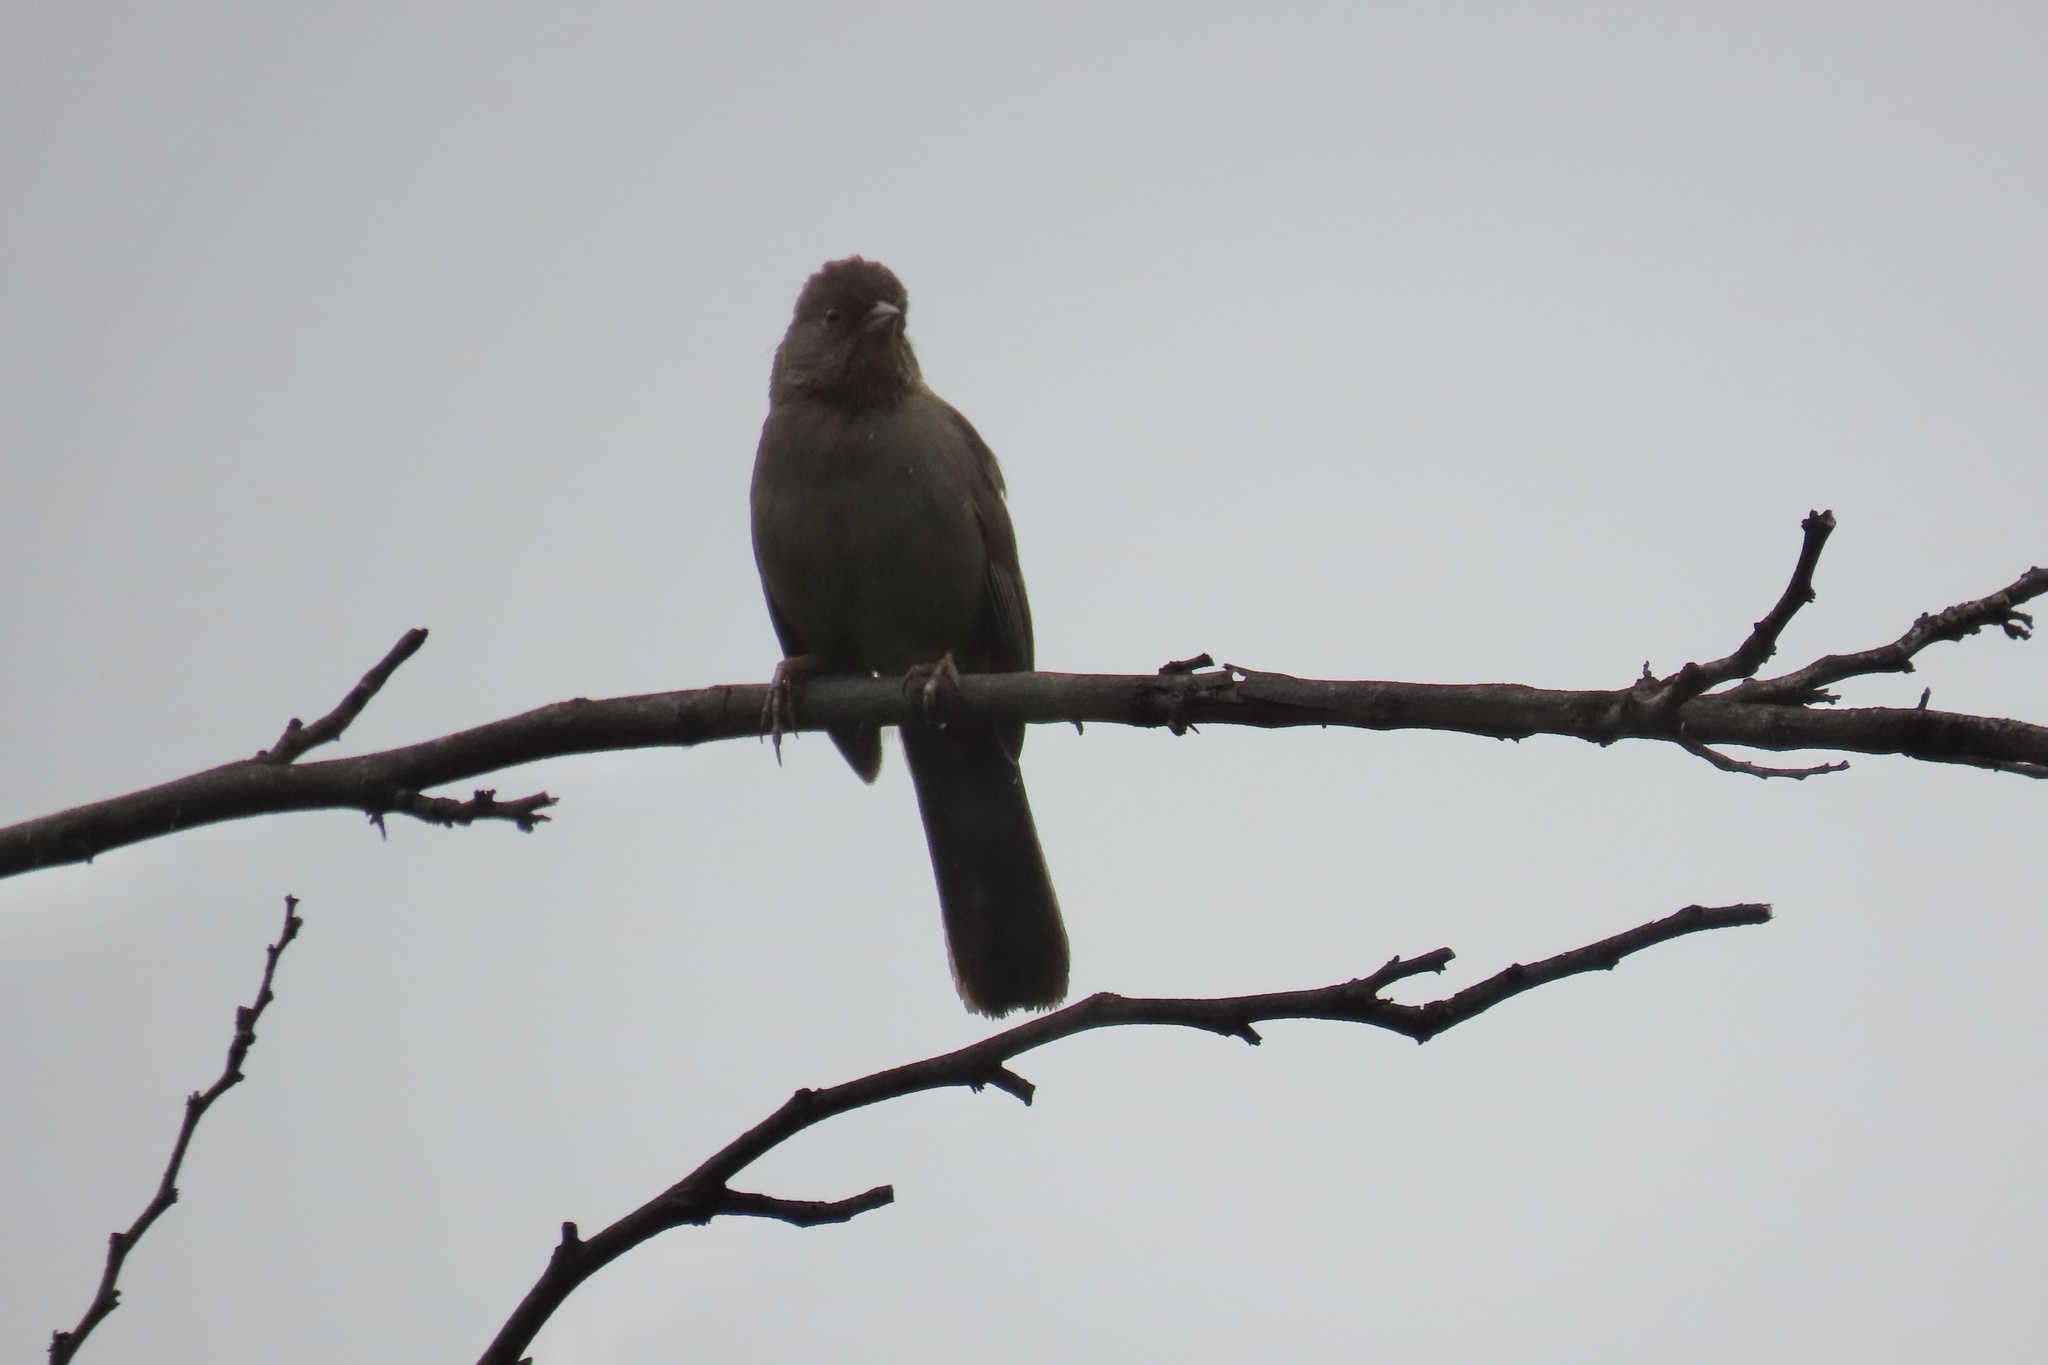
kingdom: Animalia
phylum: Chordata
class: Aves
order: Passeriformes
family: Passerellidae
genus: Melozone
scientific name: Melozone crissalis
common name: California towhee
